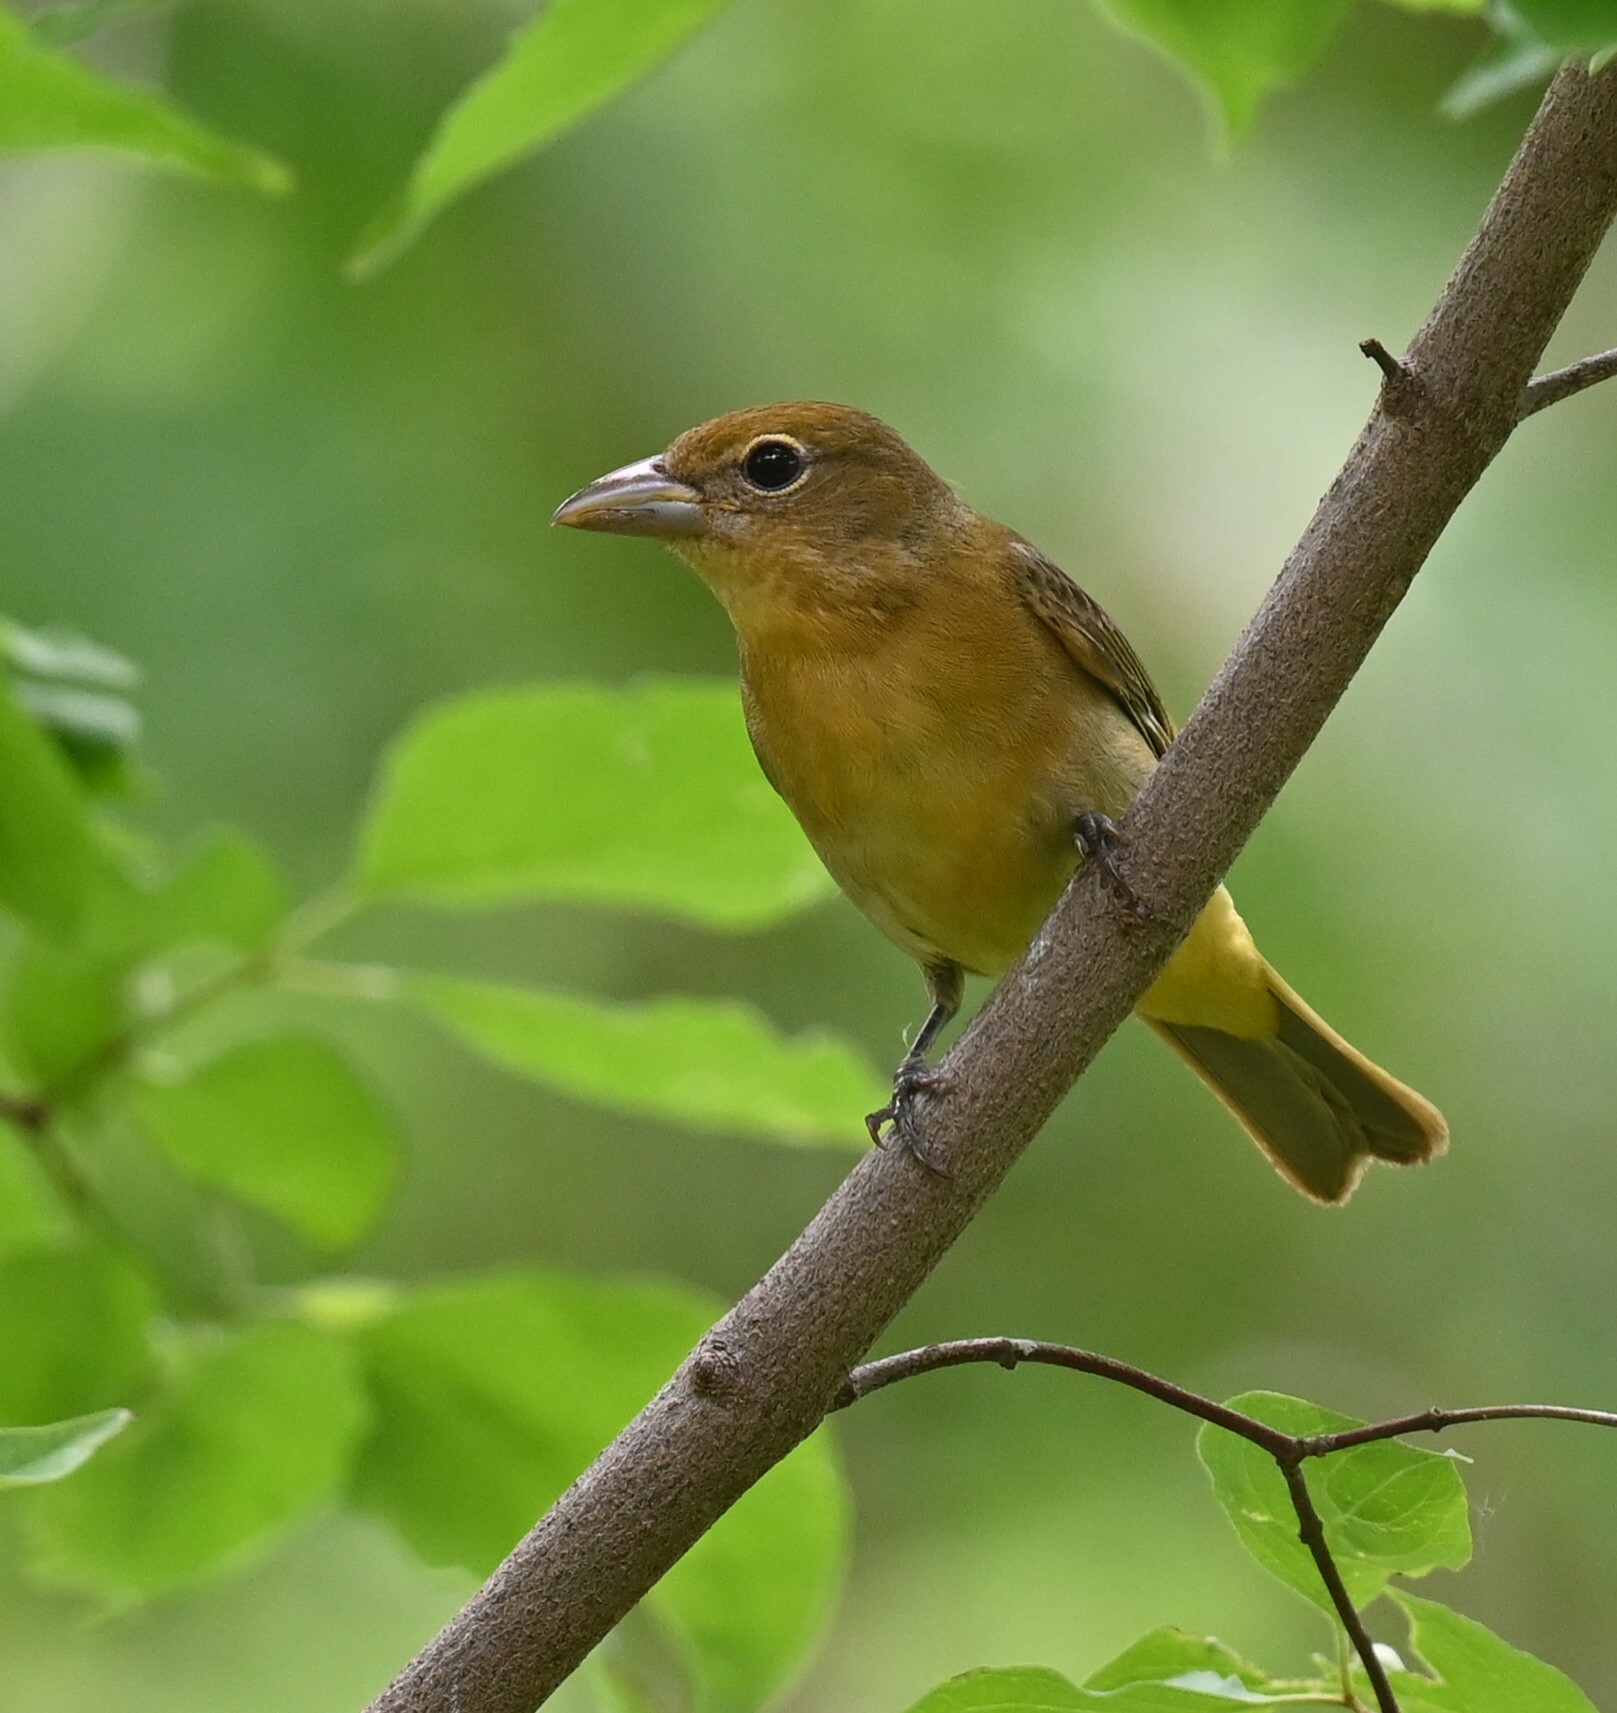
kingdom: Animalia
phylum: Chordata
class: Aves
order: Passeriformes
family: Cardinalidae
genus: Piranga
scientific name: Piranga rubra
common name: Summer tanager
